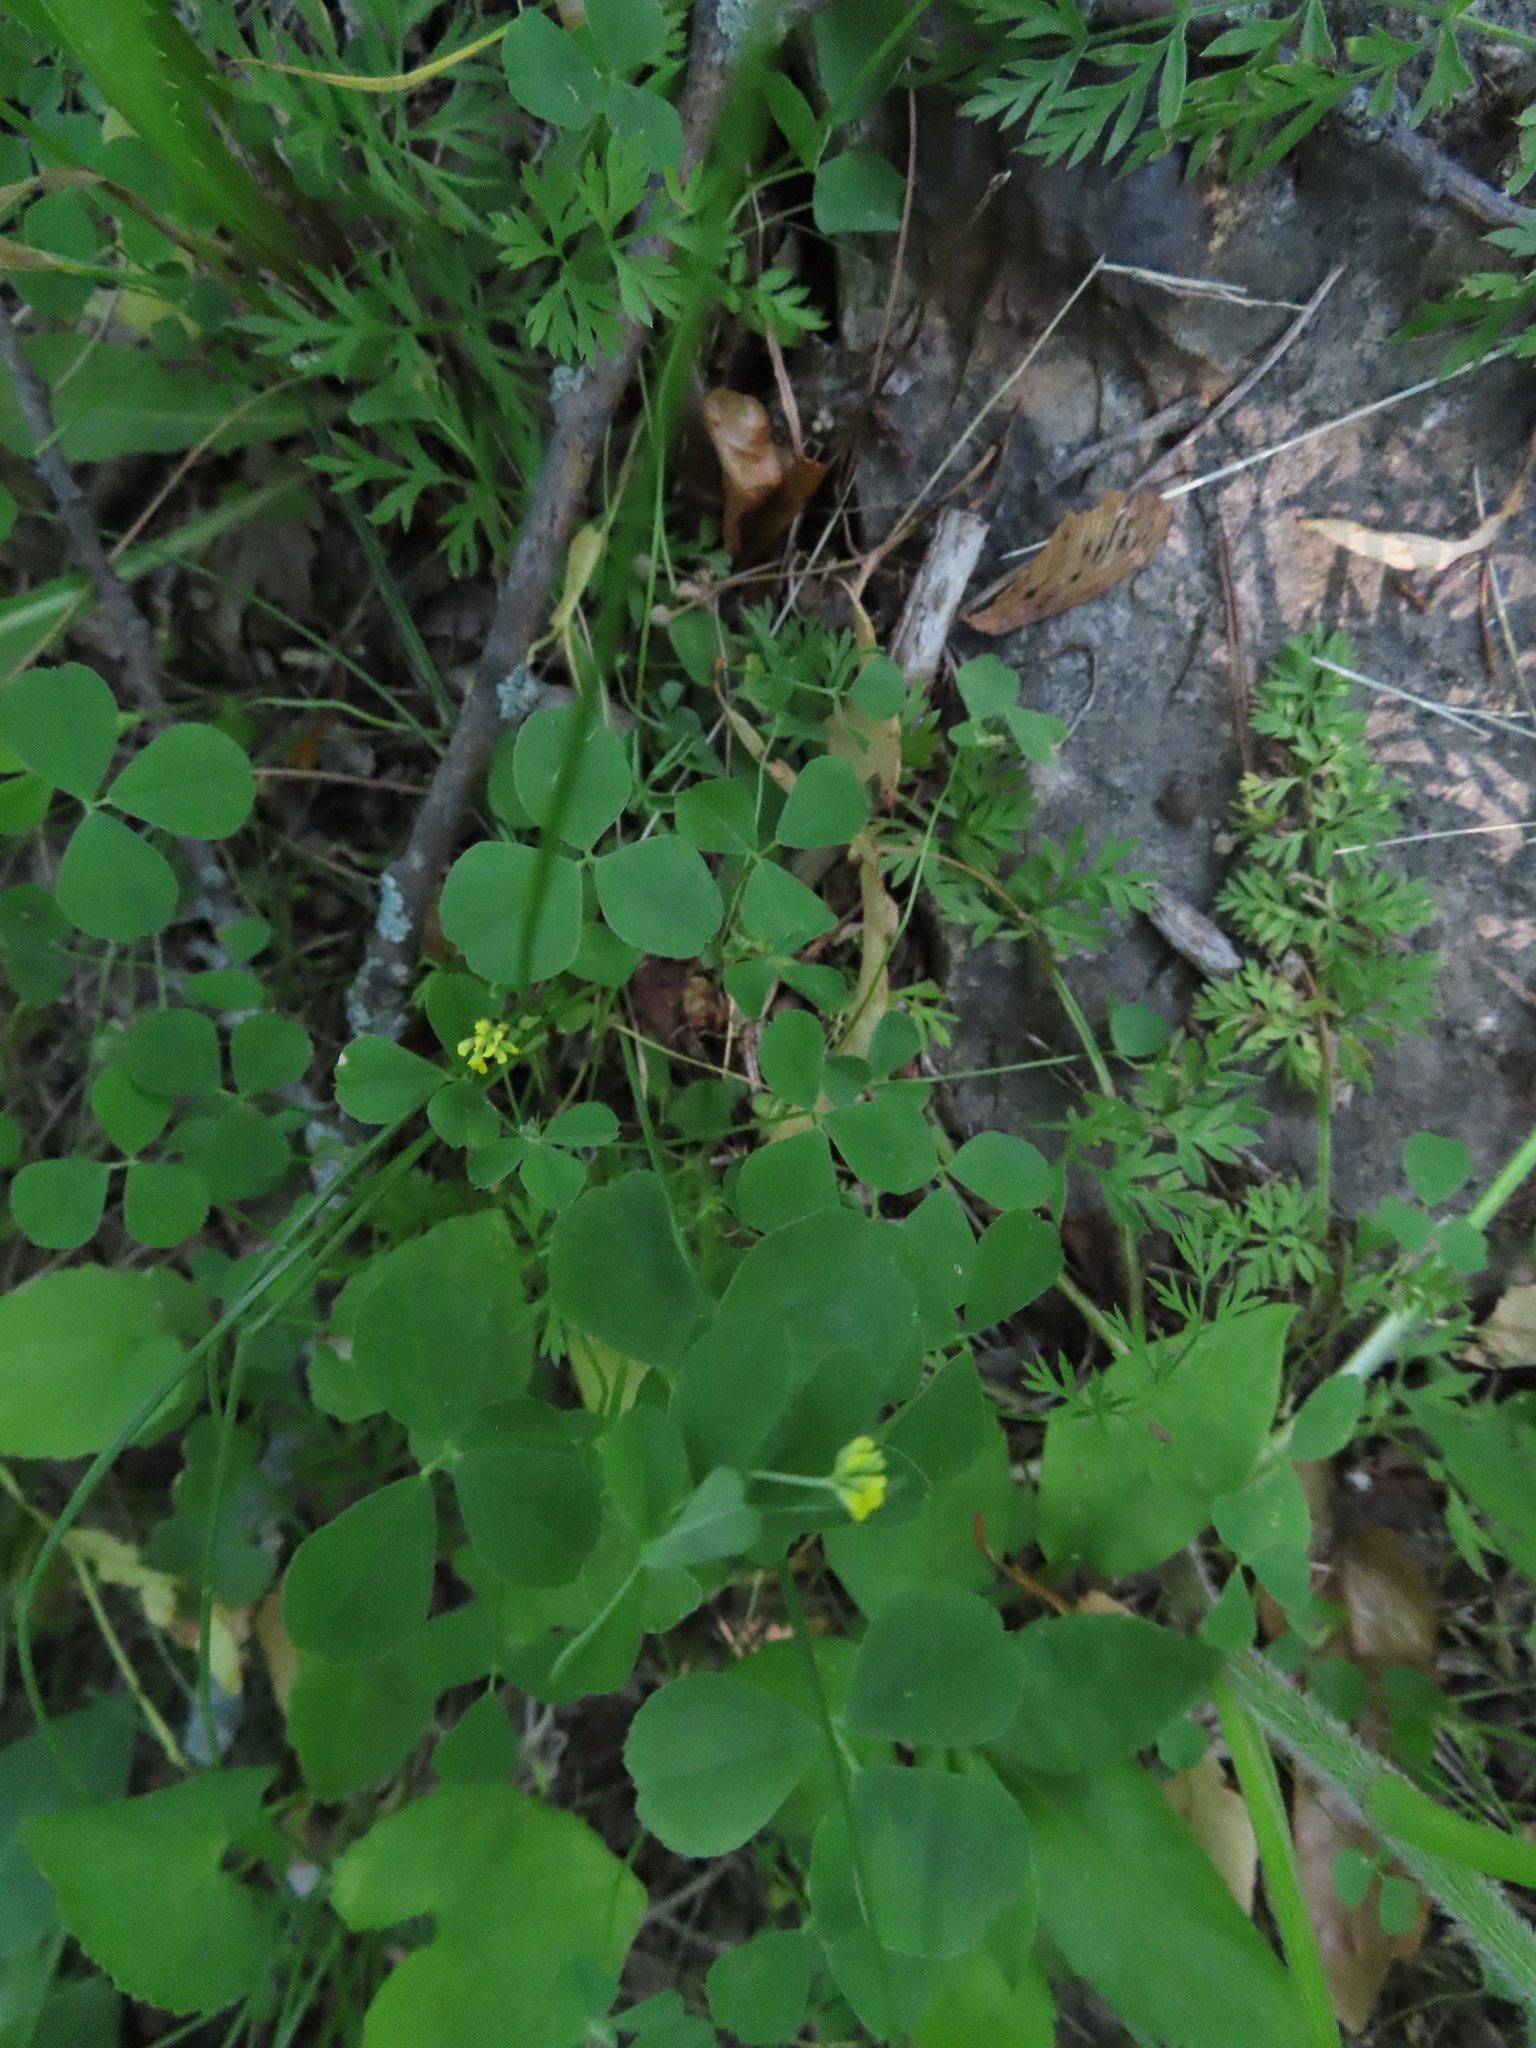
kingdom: Plantae
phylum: Tracheophyta
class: Magnoliopsida
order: Fabales
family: Fabaceae
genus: Medicago
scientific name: Medicago lupulina
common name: Black medick
